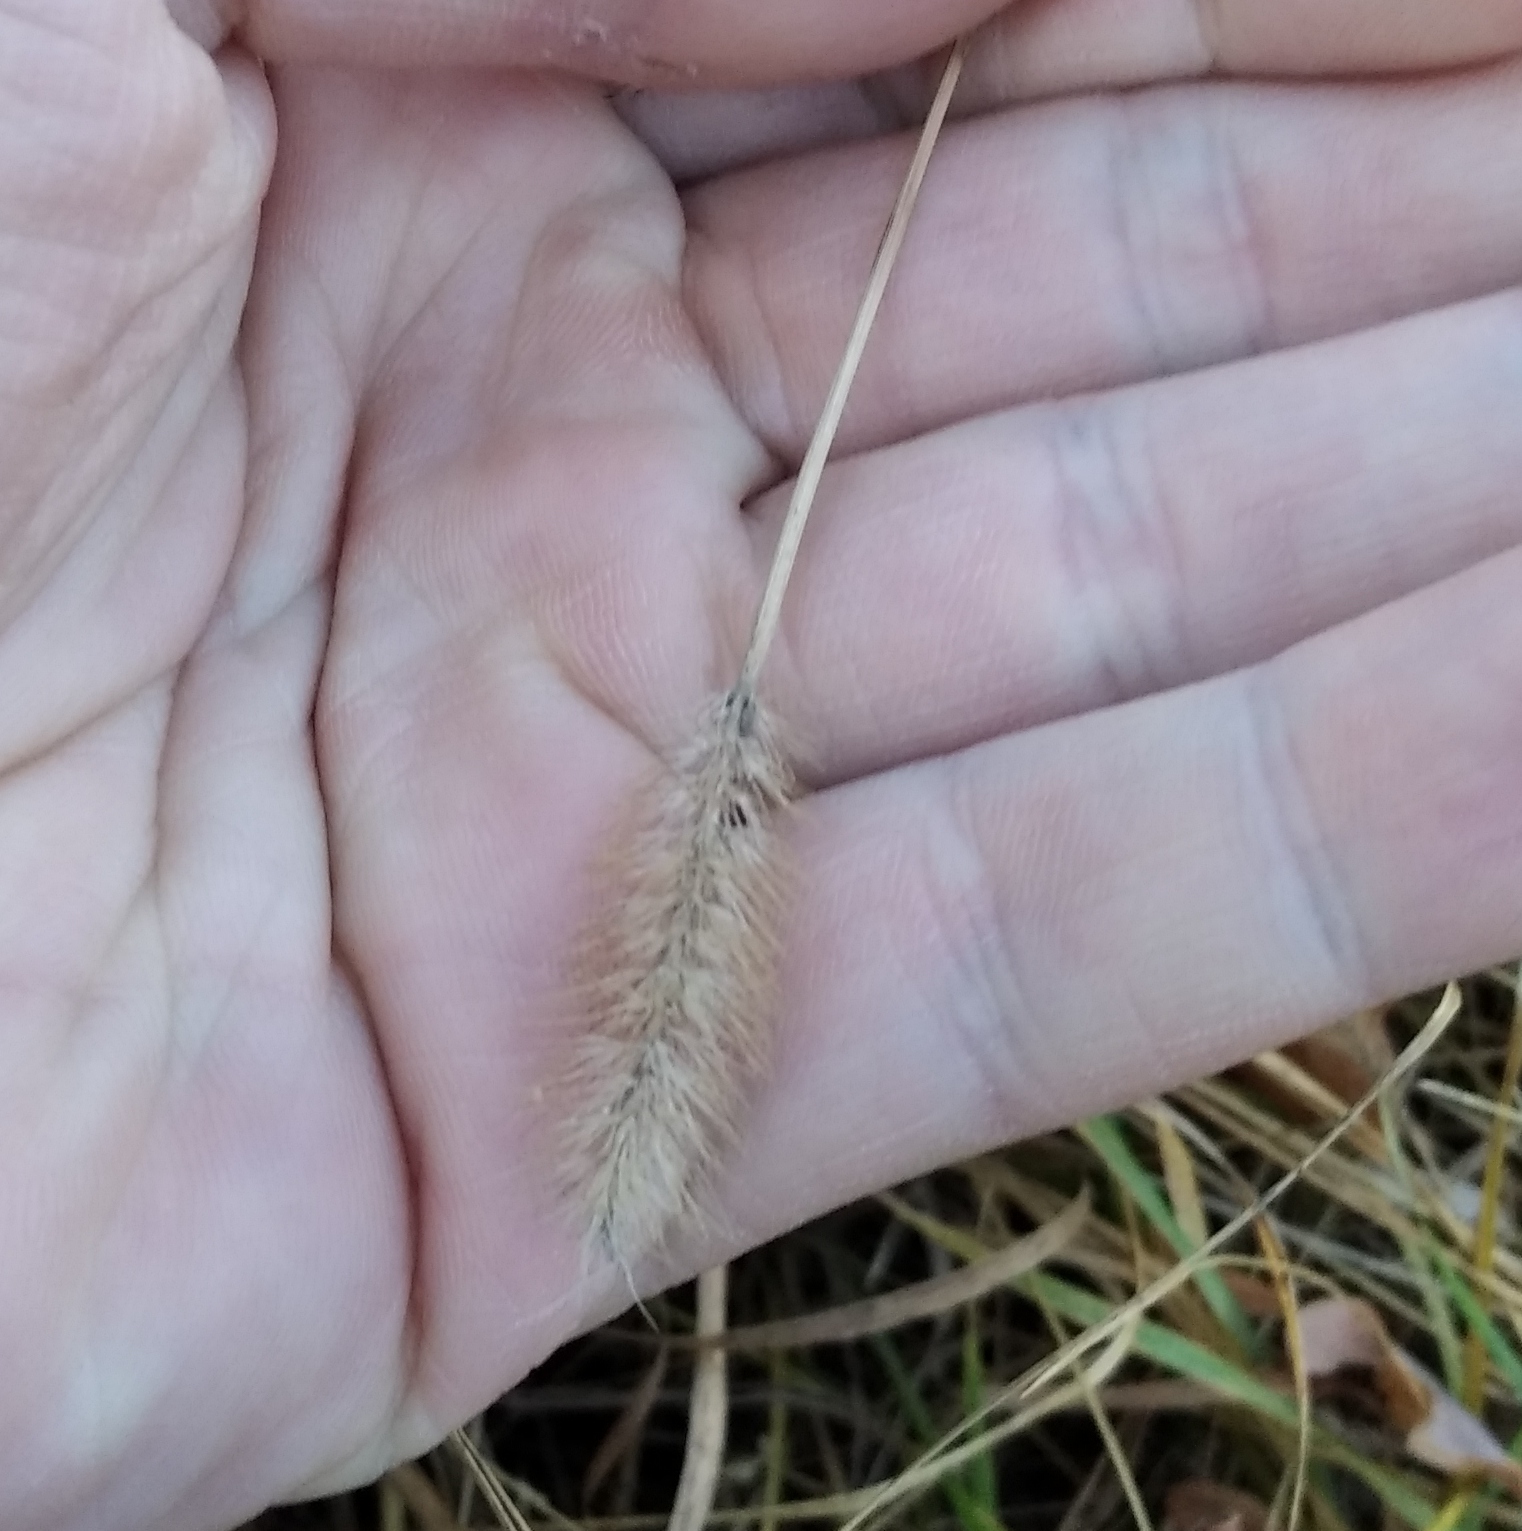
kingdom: Plantae
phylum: Tracheophyta
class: Liliopsida
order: Poales
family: Poaceae
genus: Setaria
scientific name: Setaria viridis
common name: Green bristlegrass
